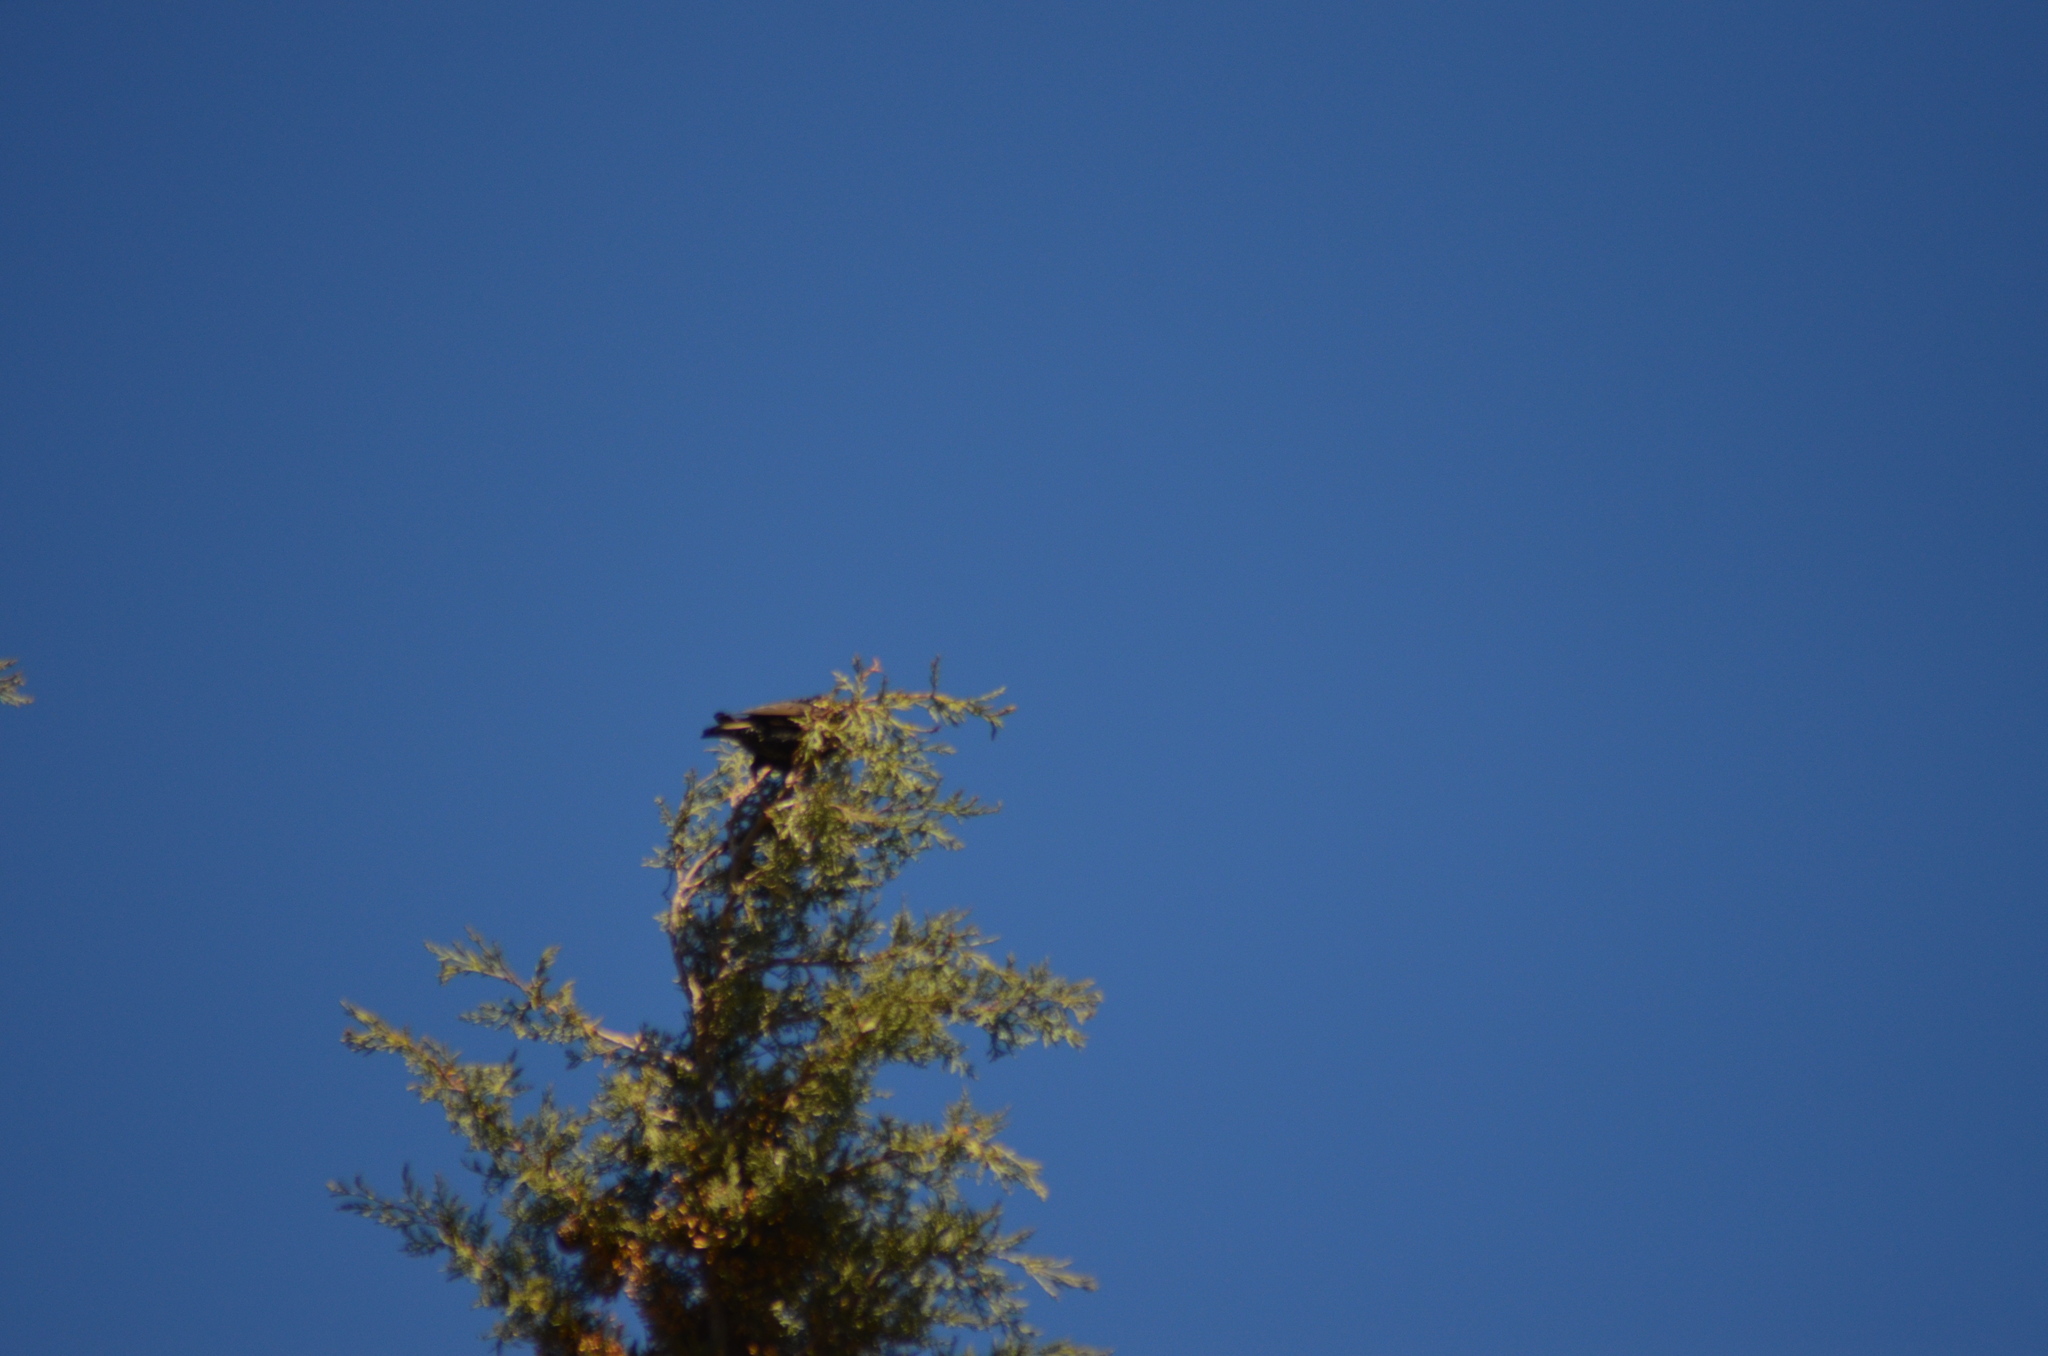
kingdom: Animalia
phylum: Chordata
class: Aves
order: Passeriformes
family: Sturnidae
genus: Sturnus
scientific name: Sturnus vulgaris
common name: Common starling
